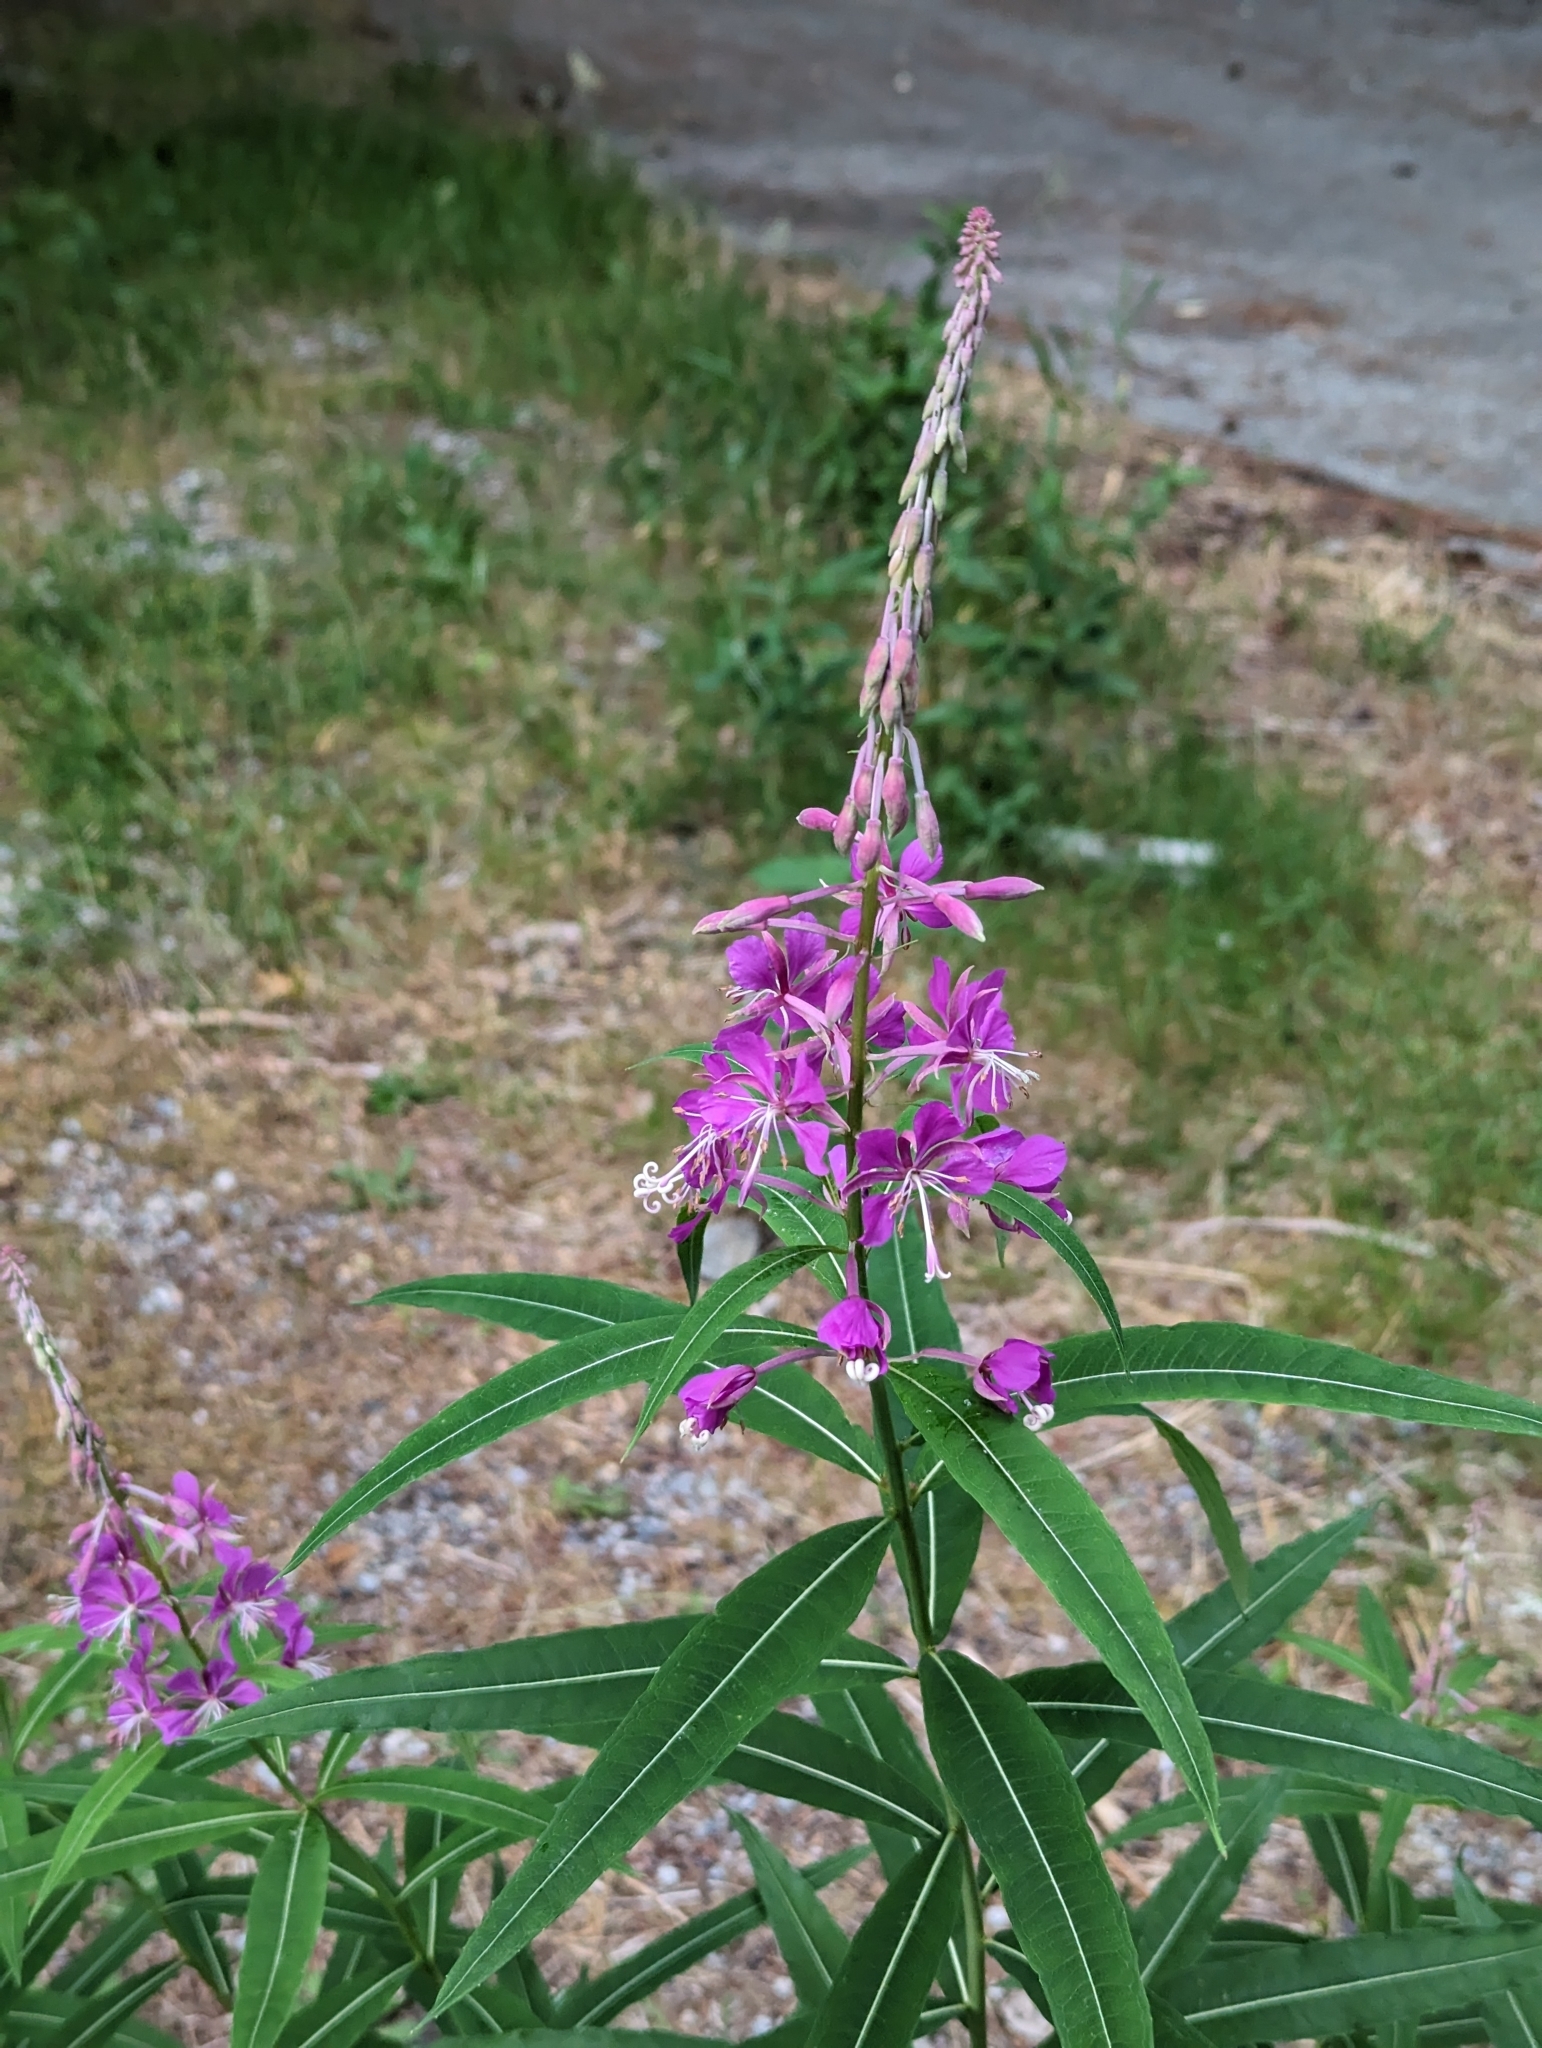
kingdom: Plantae
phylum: Tracheophyta
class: Magnoliopsida
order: Myrtales
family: Onagraceae
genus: Chamaenerion
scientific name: Chamaenerion angustifolium
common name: Fireweed
